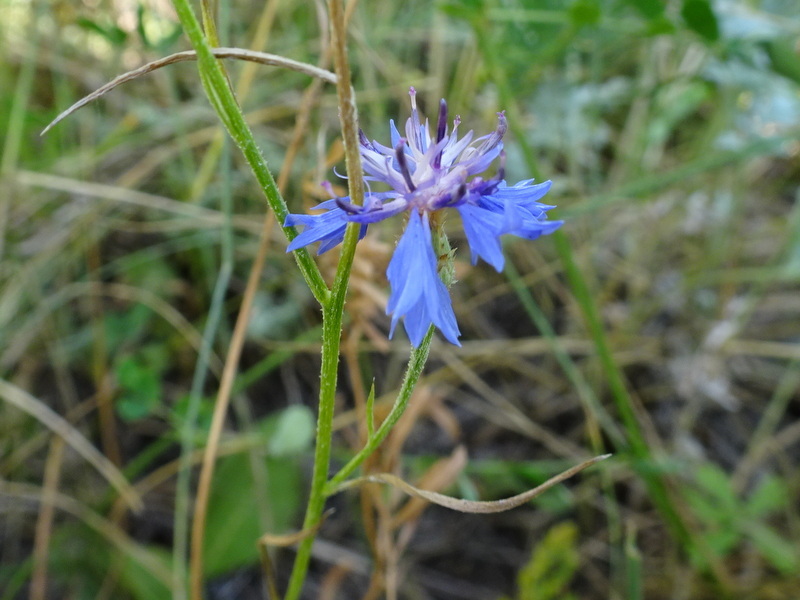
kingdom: Plantae
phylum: Tracheophyta
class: Magnoliopsida
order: Asterales
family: Asteraceae
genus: Centaurea
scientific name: Centaurea cyanus
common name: Cornflower
